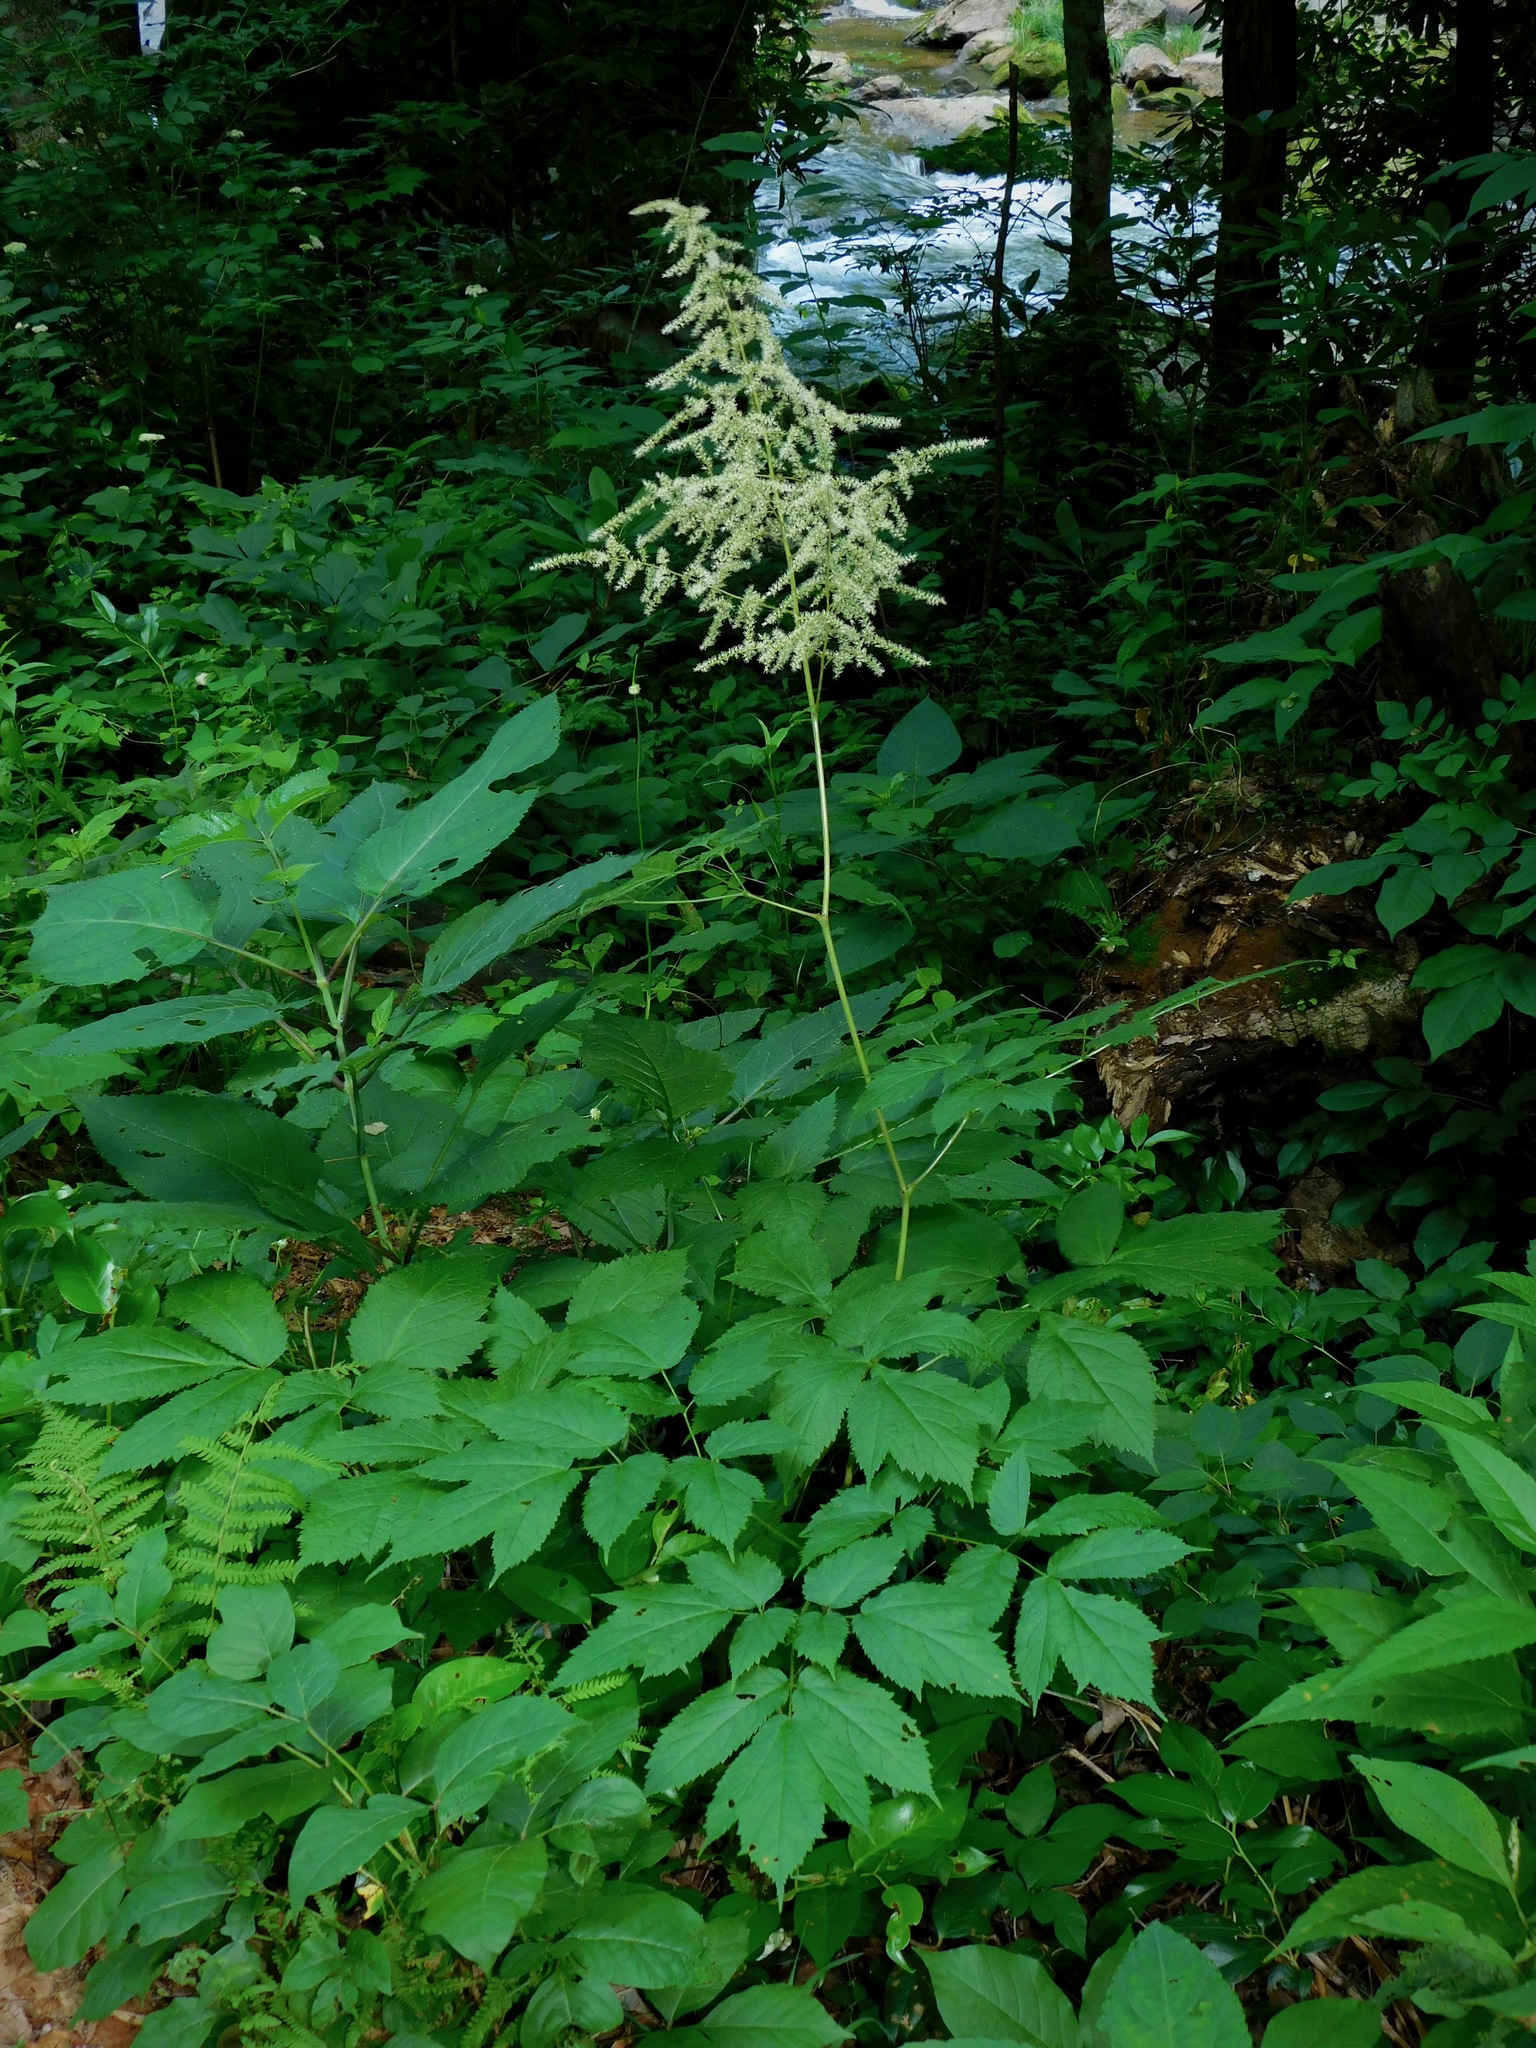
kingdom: Plantae
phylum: Tracheophyta
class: Magnoliopsida
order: Saxifragales
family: Saxifragaceae
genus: Astilbe
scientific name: Astilbe biternata
